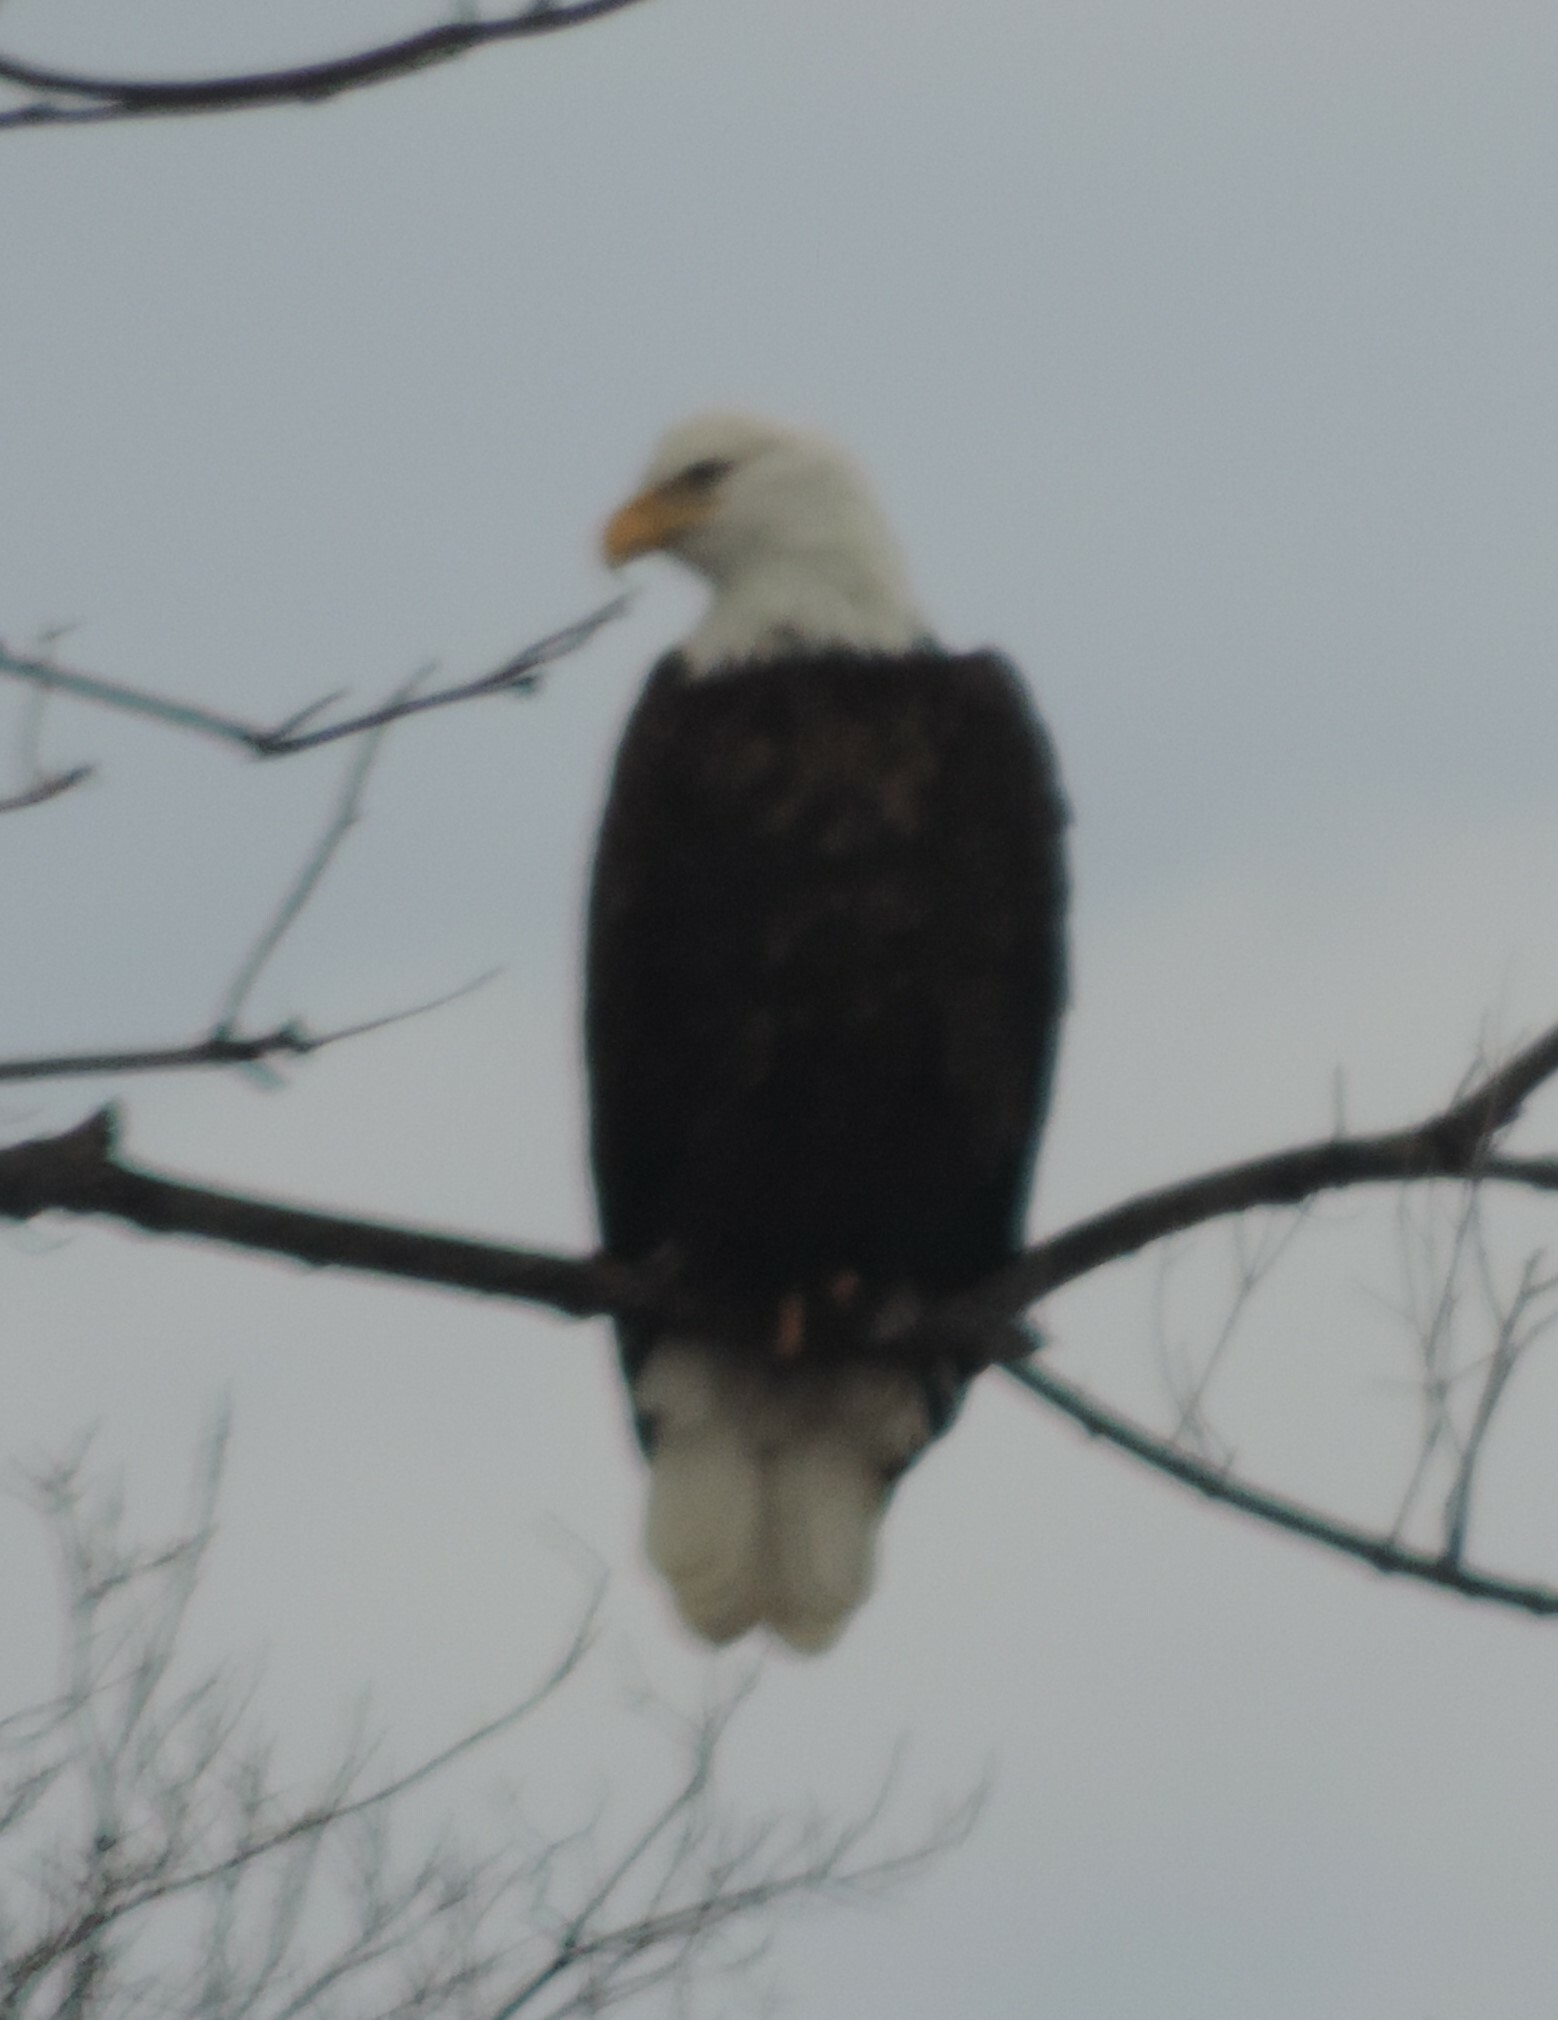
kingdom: Animalia
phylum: Chordata
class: Aves
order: Accipitriformes
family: Accipitridae
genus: Haliaeetus
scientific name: Haliaeetus leucocephalus
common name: Bald eagle
